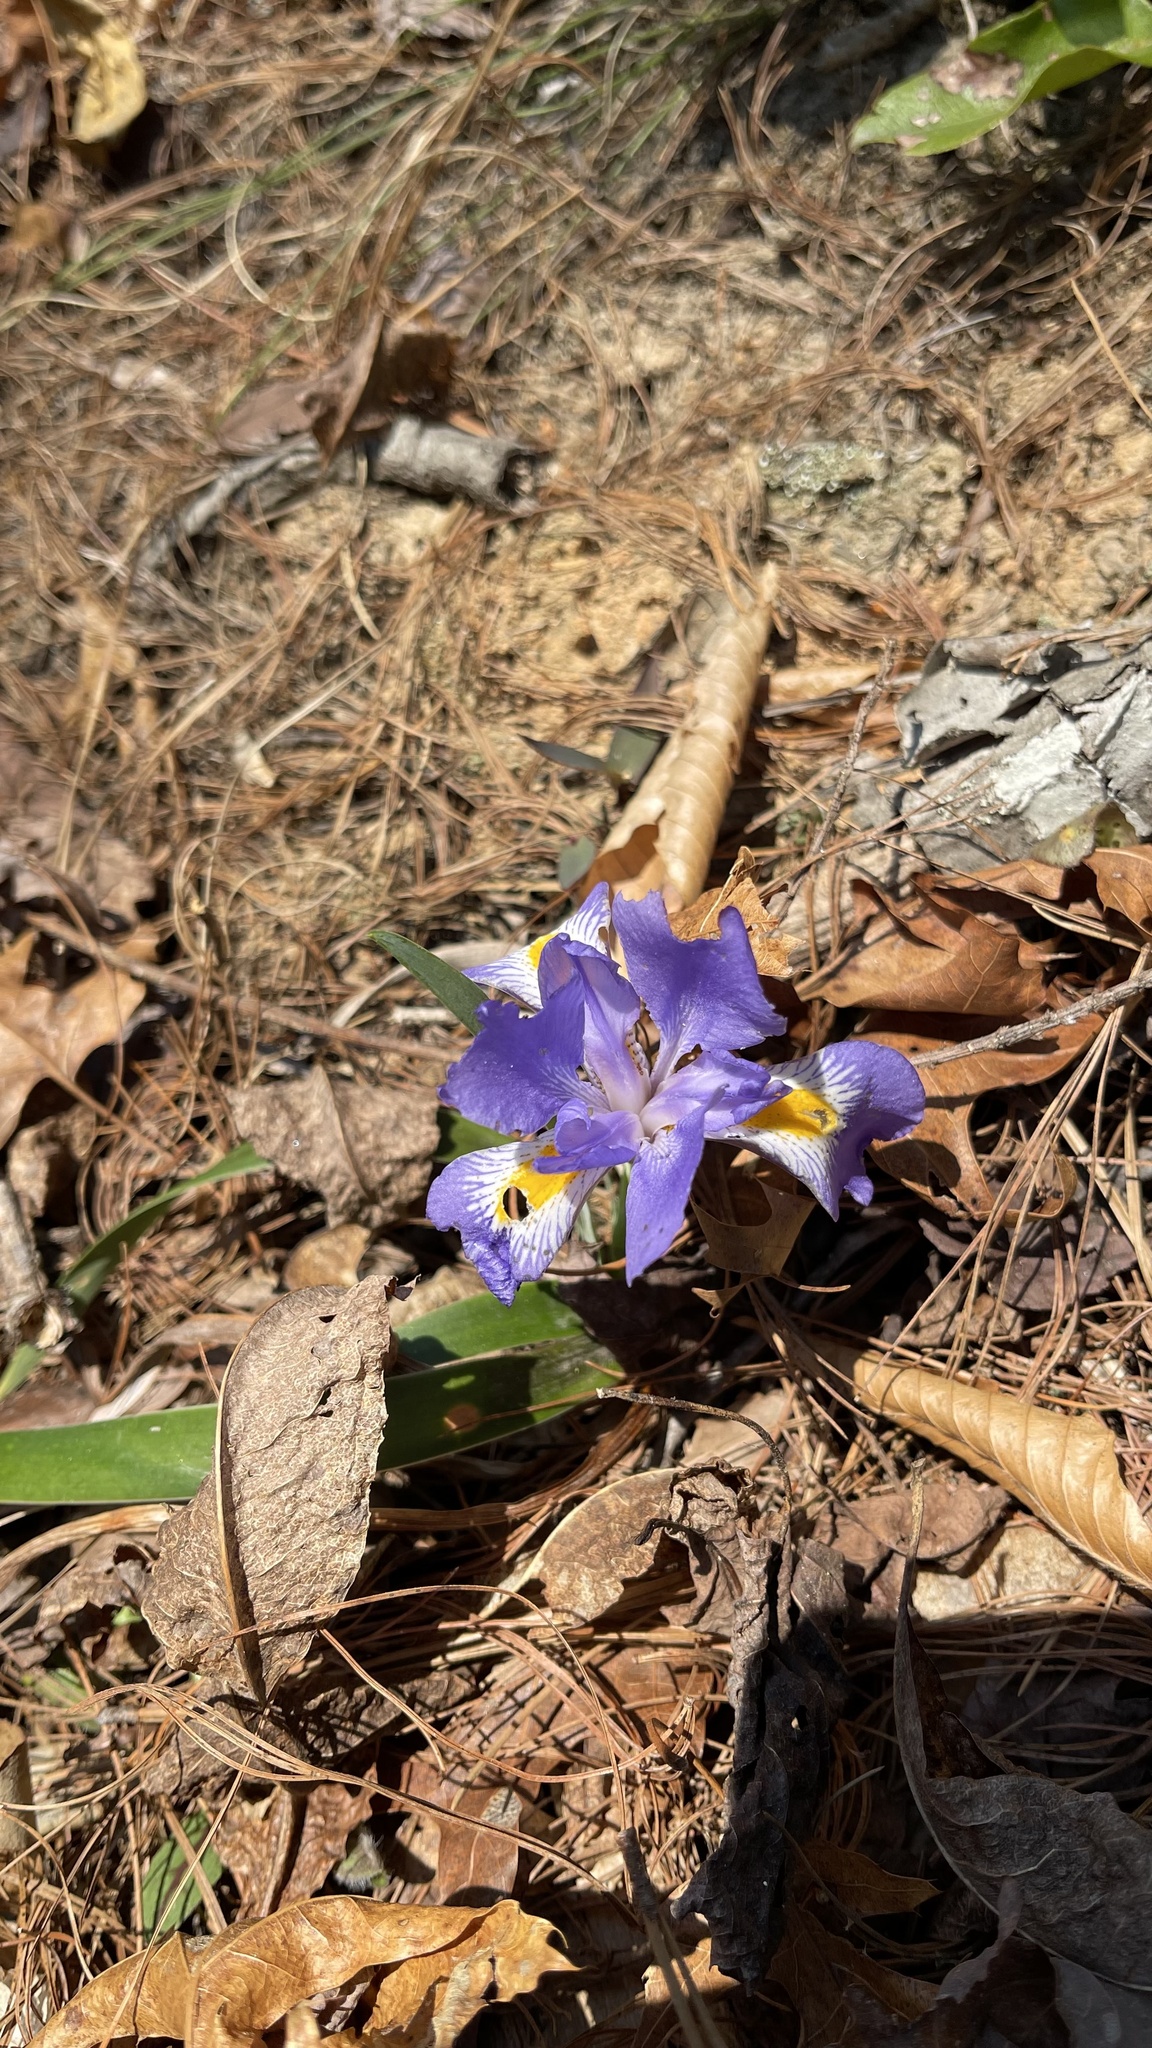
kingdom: Plantae
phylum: Tracheophyta
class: Liliopsida
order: Asparagales
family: Iridaceae
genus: Iris
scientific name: Iris verna
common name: Dwarf iris
